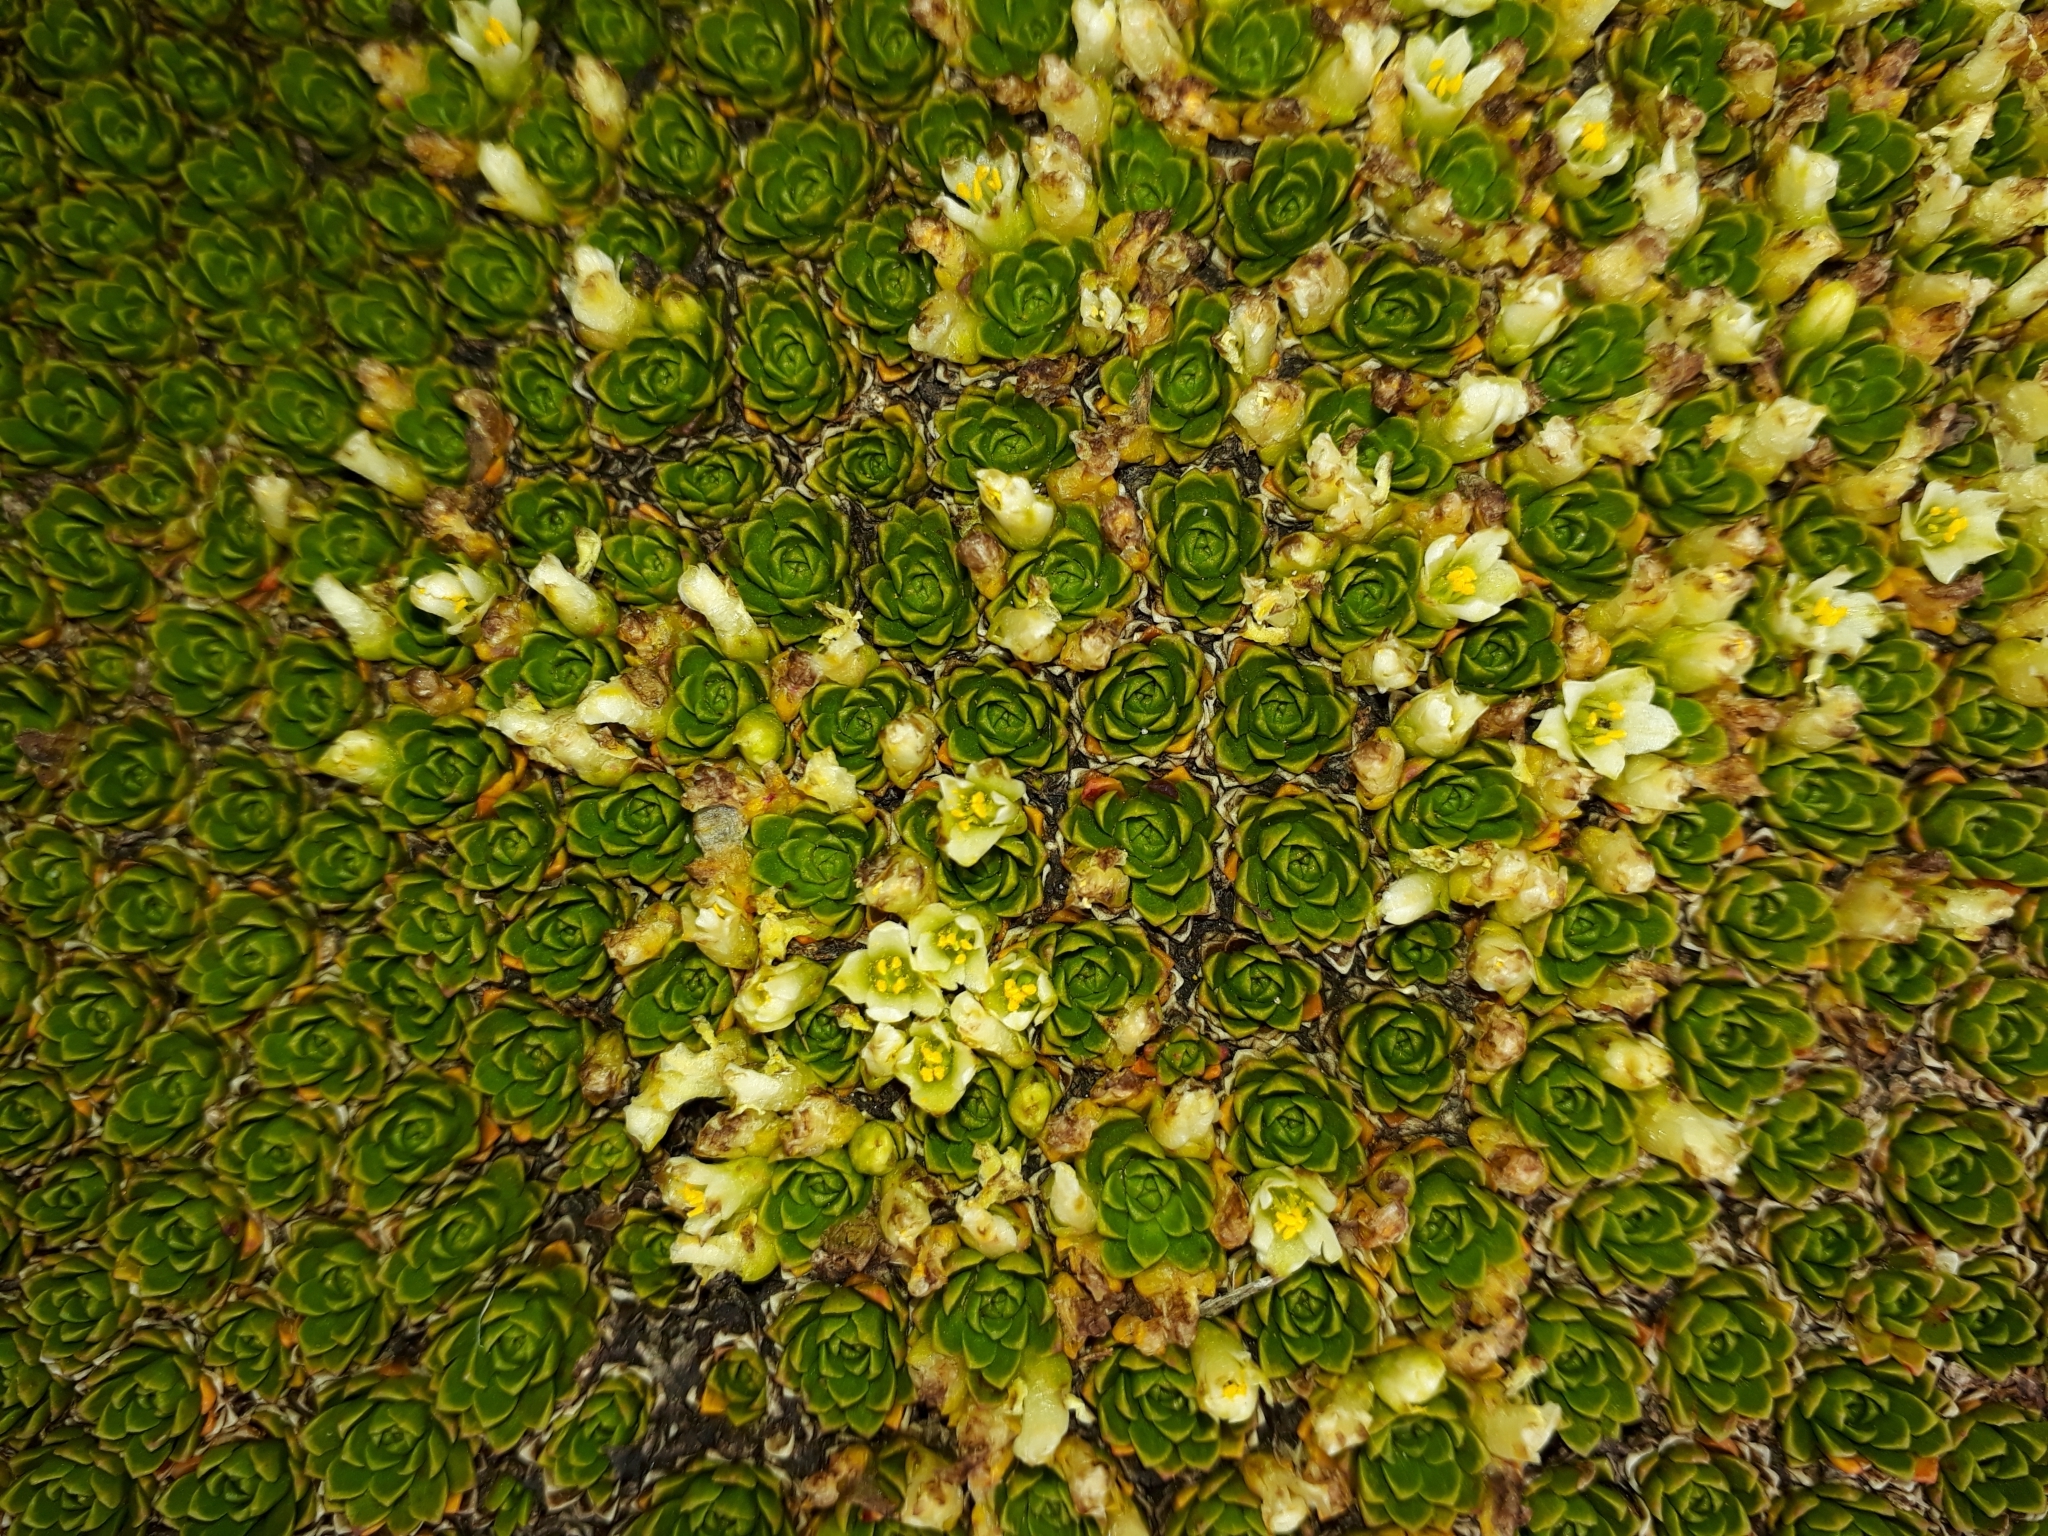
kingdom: Plantae
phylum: Tracheophyta
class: Magnoliopsida
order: Caryophyllales
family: Montiaceae
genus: Hectorella
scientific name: Hectorella caespitosa
